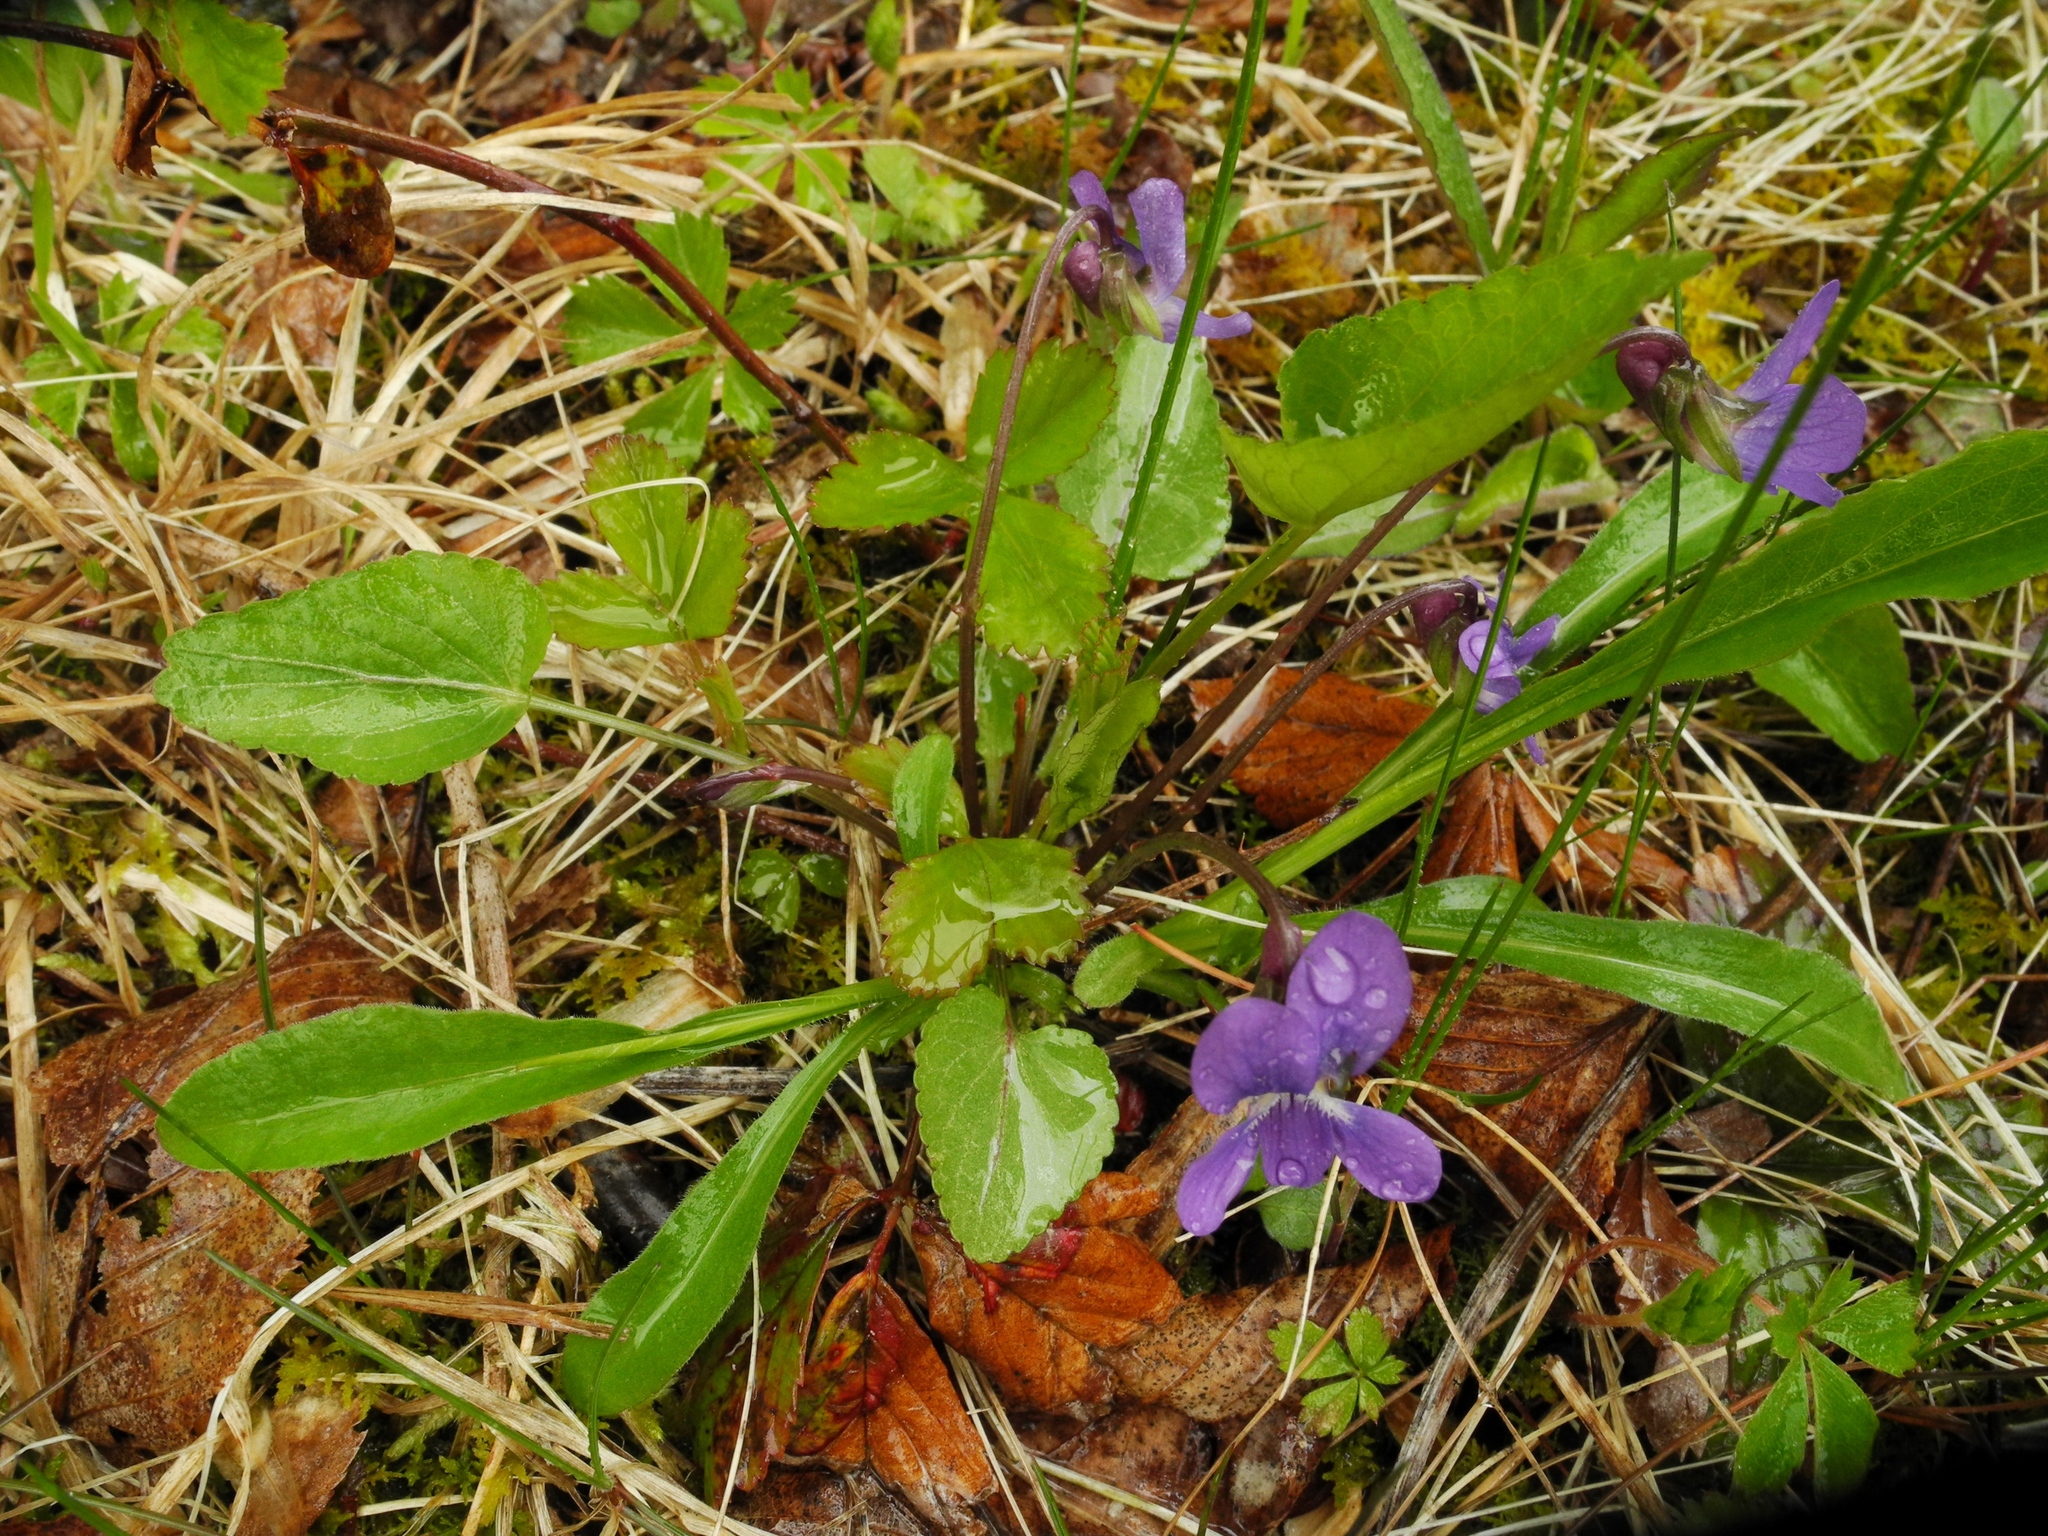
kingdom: Plantae
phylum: Tracheophyta
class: Magnoliopsida
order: Malpighiales
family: Violaceae
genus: Viola
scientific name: Viola sagittata
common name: Arrowhead violet
